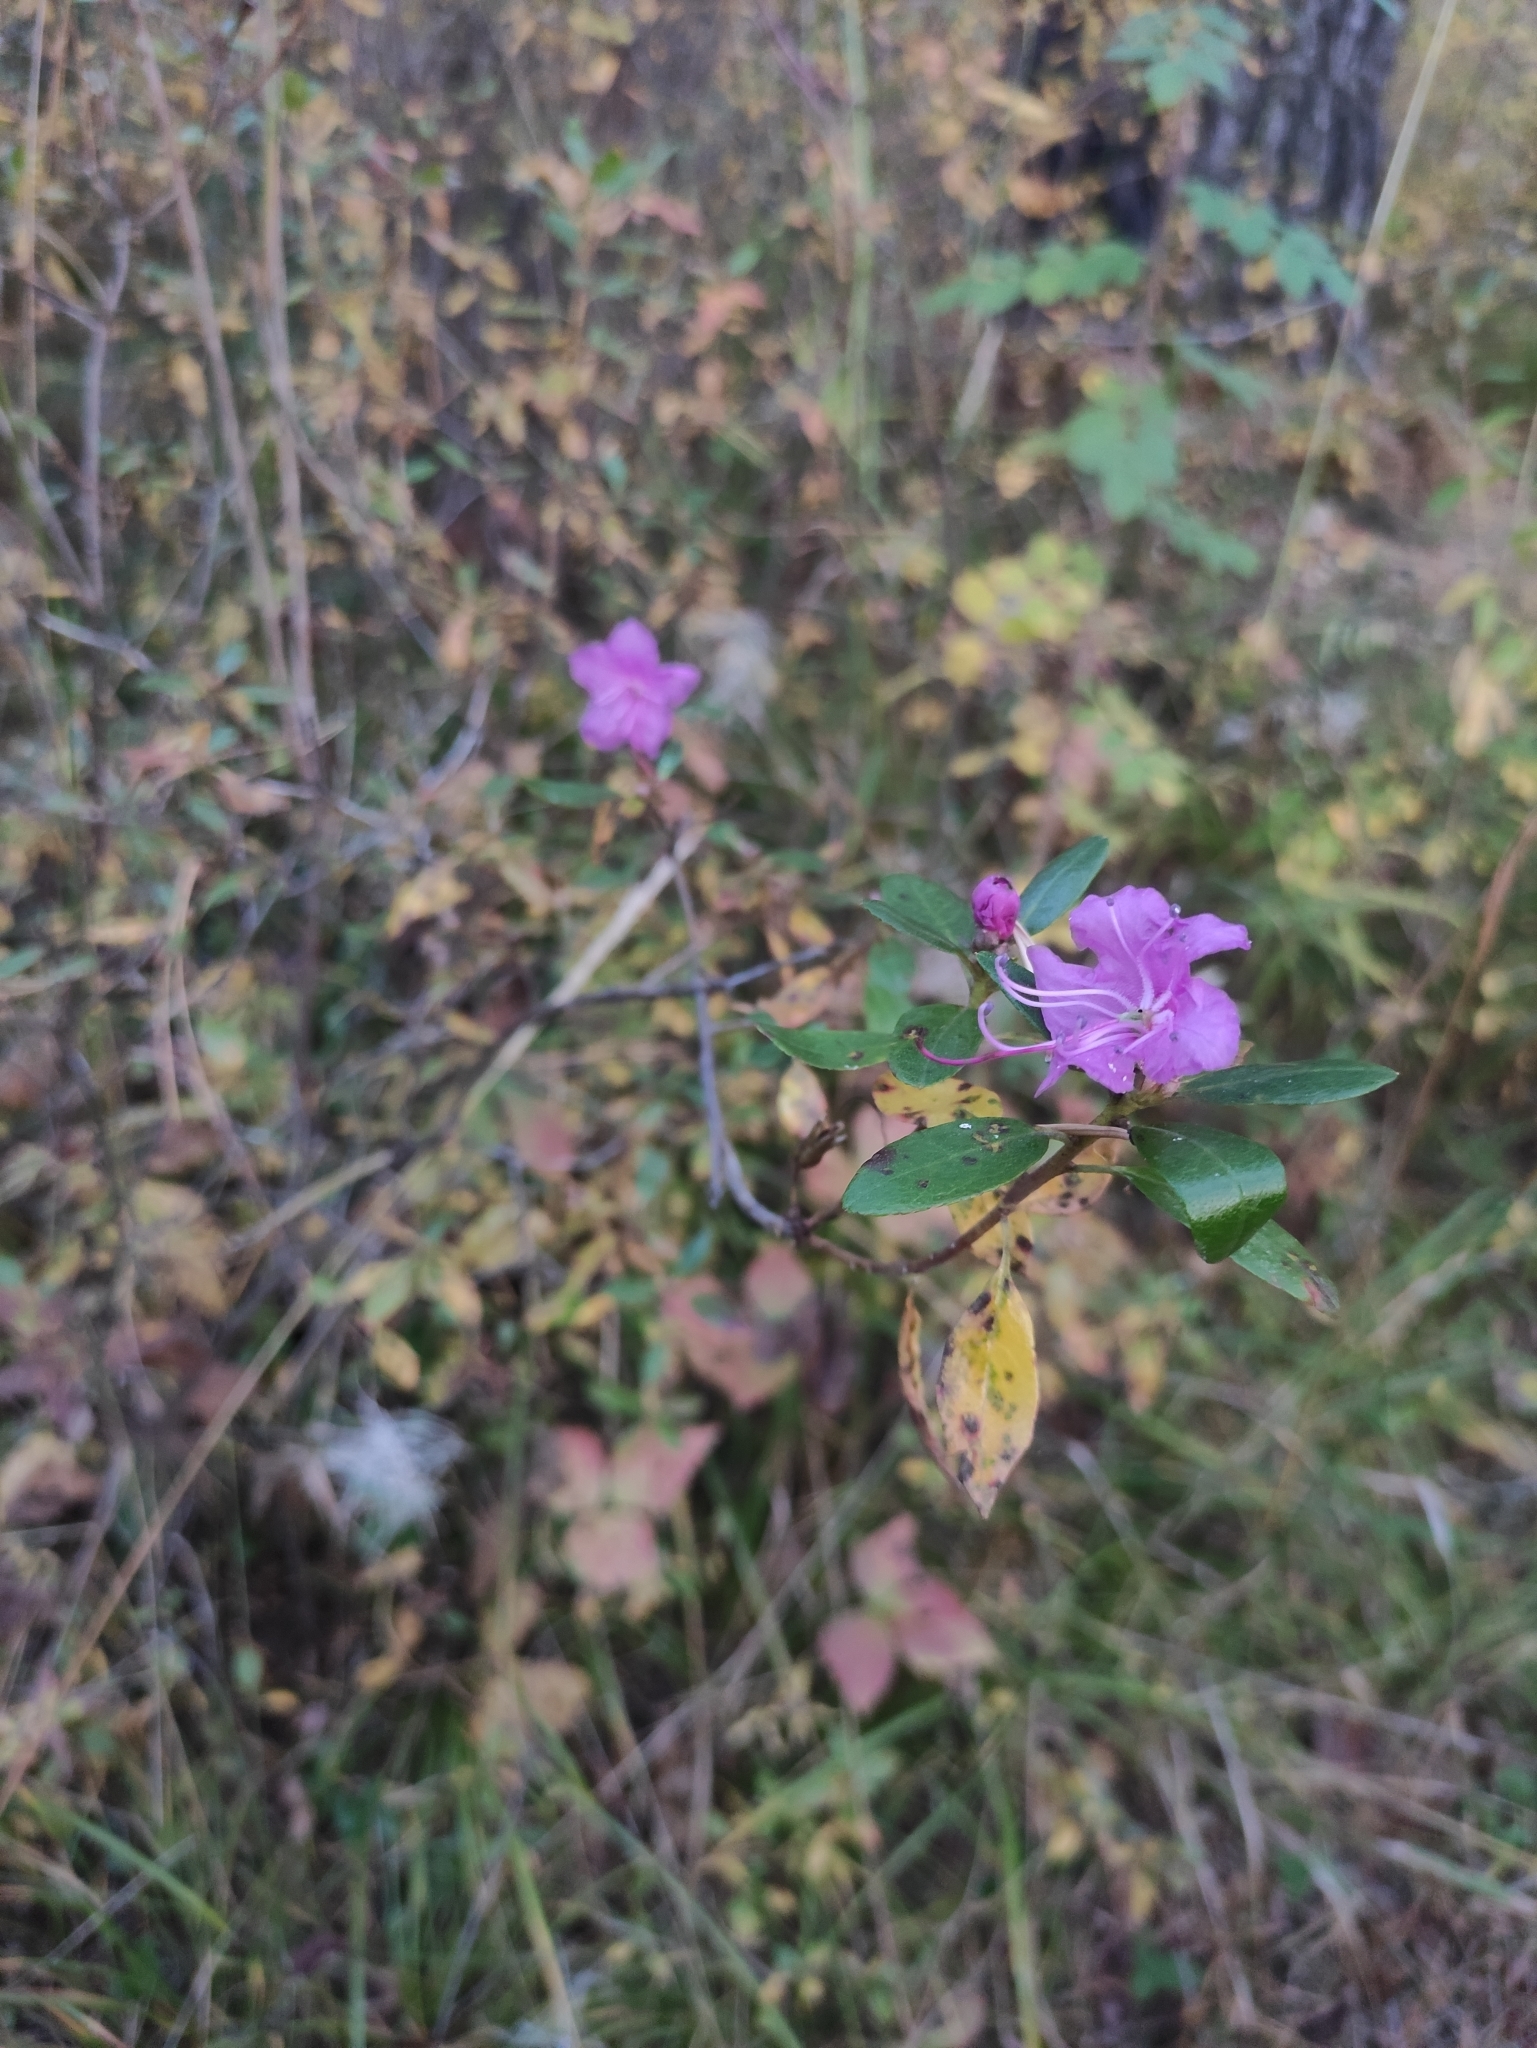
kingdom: Plantae
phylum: Tracheophyta
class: Magnoliopsida
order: Ericales
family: Ericaceae
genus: Rhododendron
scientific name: Rhododendron dauricum
